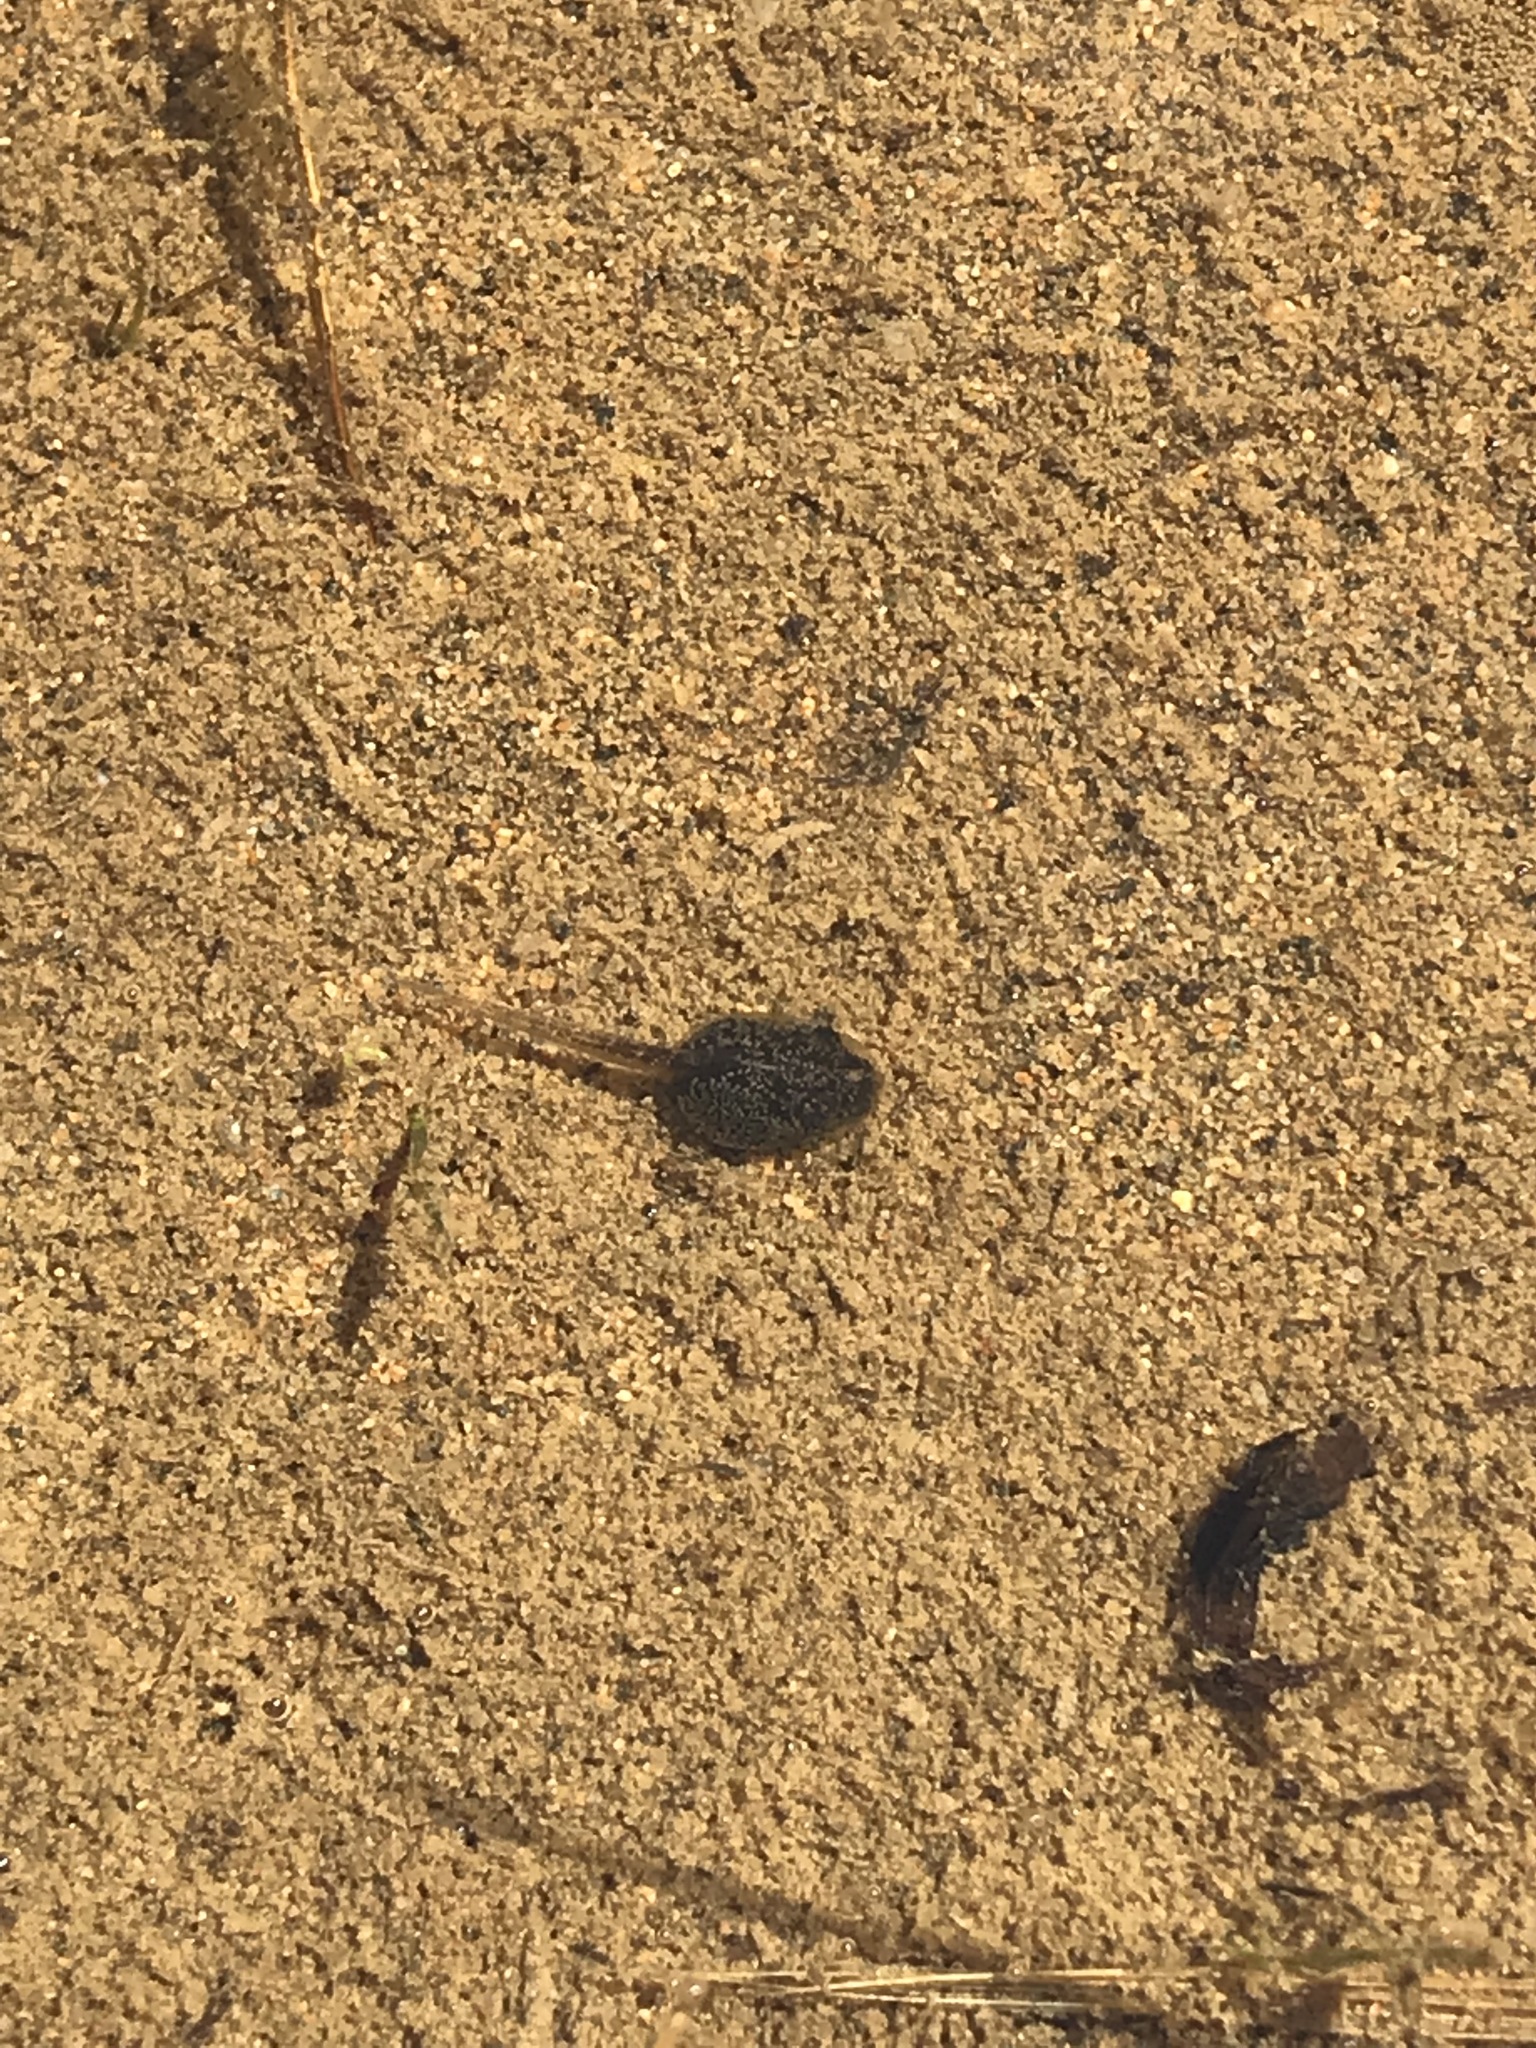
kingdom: Animalia
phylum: Chordata
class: Amphibia
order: Anura
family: Hylidae
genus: Pseudacris
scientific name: Pseudacris regilla
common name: Pacific chorus frog
